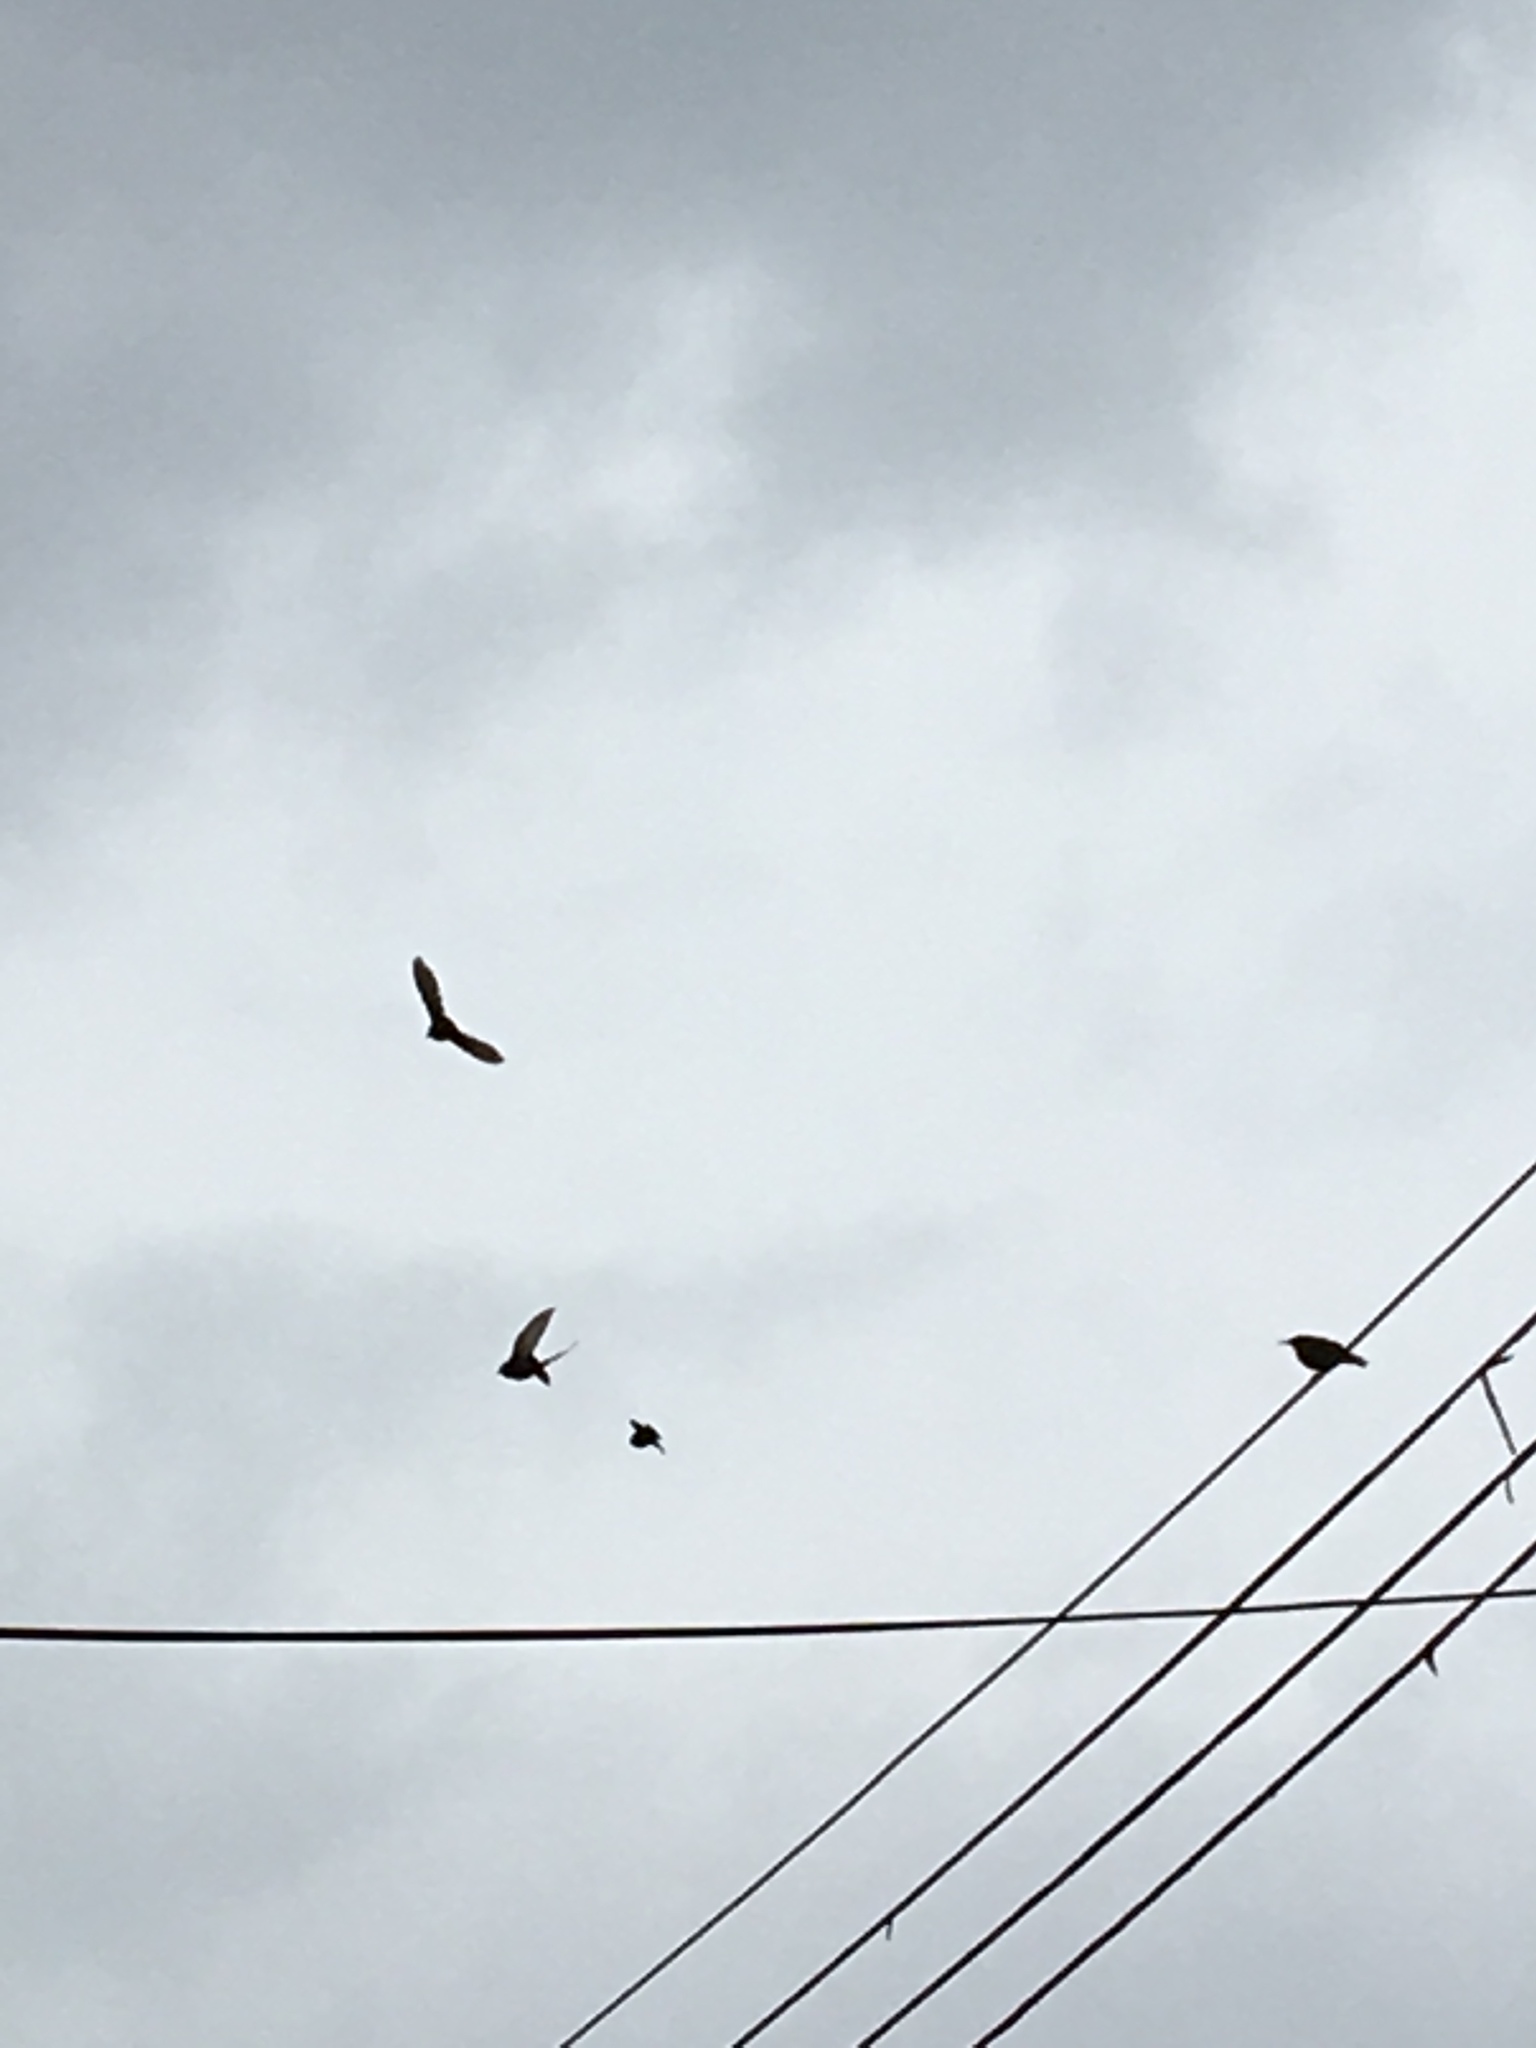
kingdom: Animalia
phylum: Chordata
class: Aves
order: Passeriformes
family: Sturnidae
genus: Sturnus
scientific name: Sturnus vulgaris
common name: Common starling
